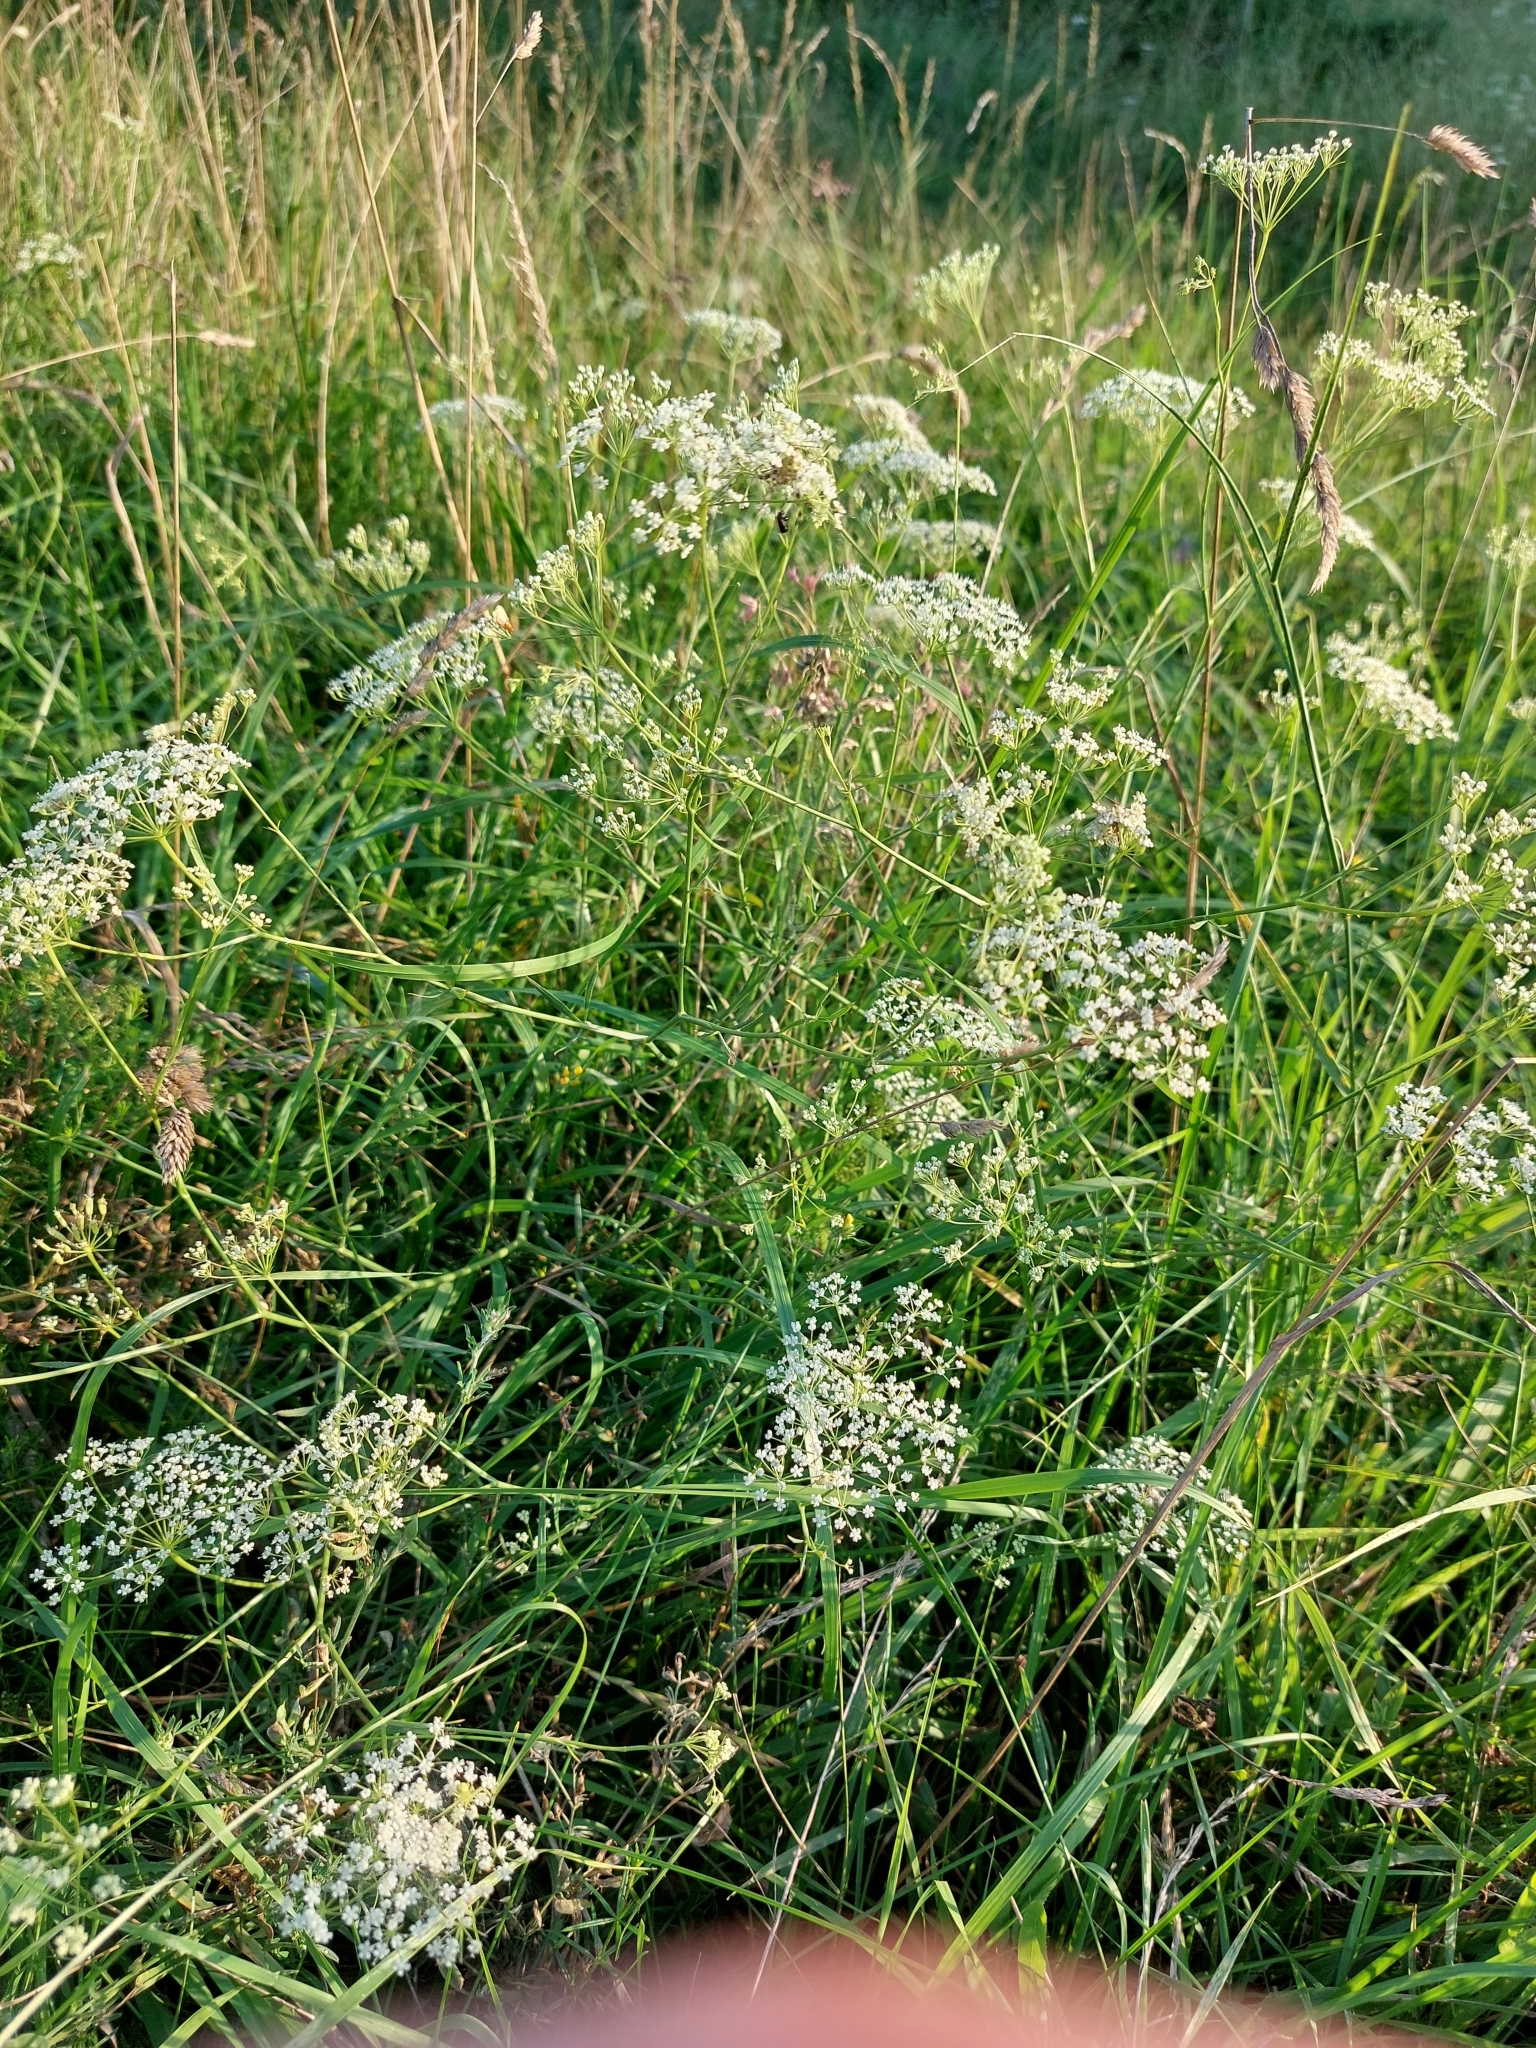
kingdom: Plantae
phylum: Tracheophyta
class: Magnoliopsida
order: Apiales
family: Apiaceae
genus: Falcaria
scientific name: Falcaria vulgaris
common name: Longleaf
